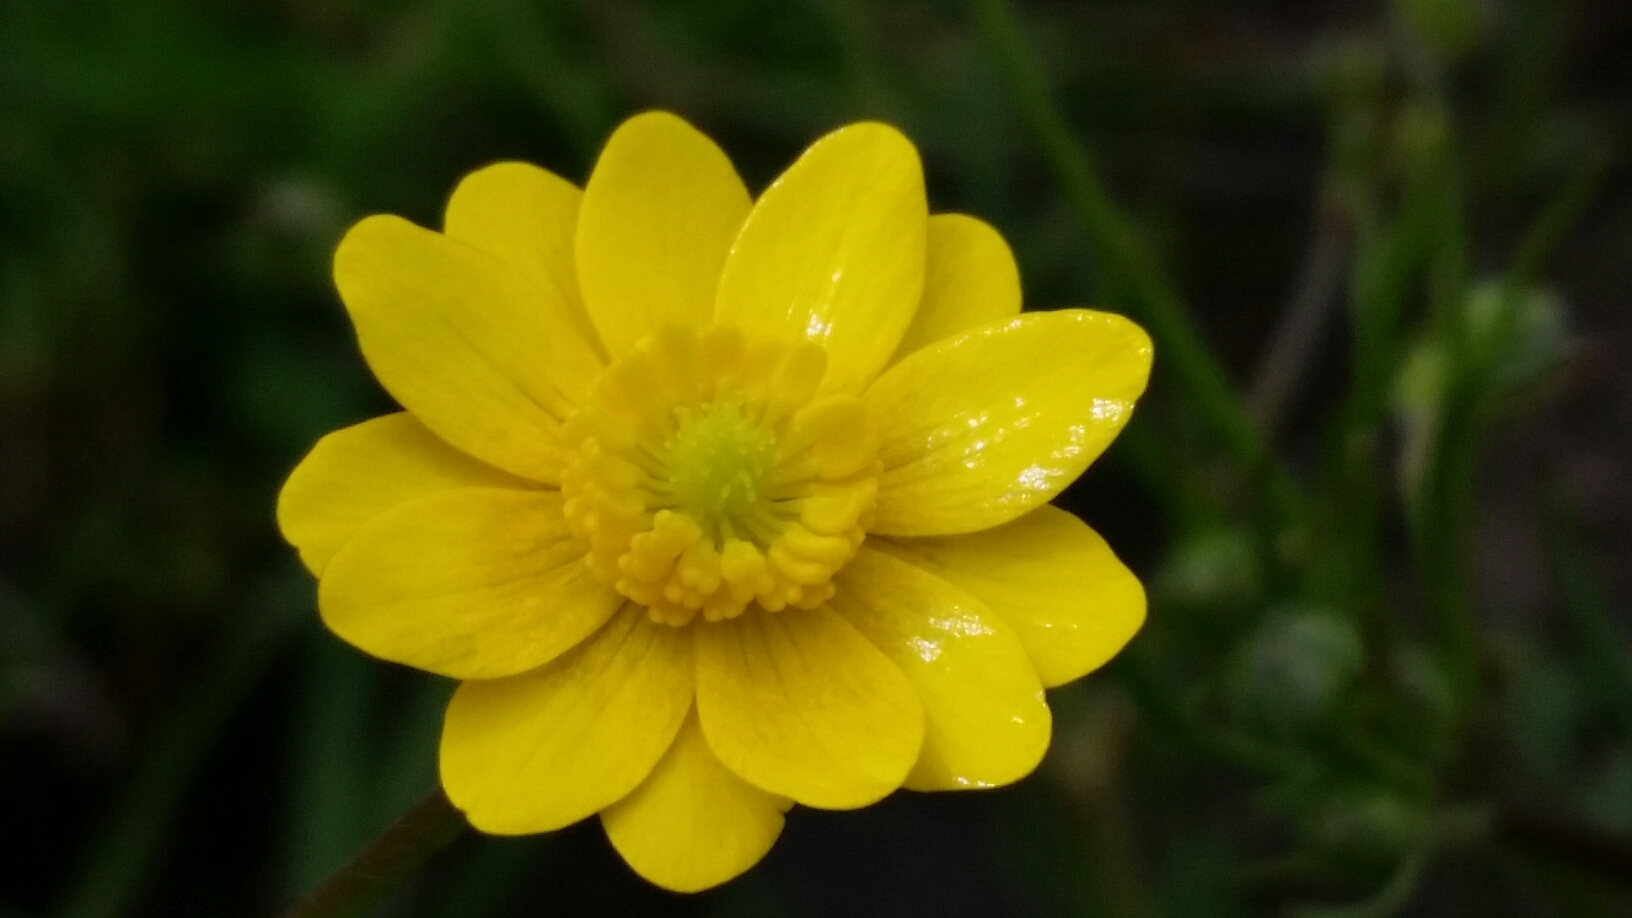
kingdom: Plantae
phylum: Tracheophyta
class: Magnoliopsida
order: Ranunculales
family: Ranunculaceae
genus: Ranunculus
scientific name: Ranunculus californicus
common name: California buttercup
